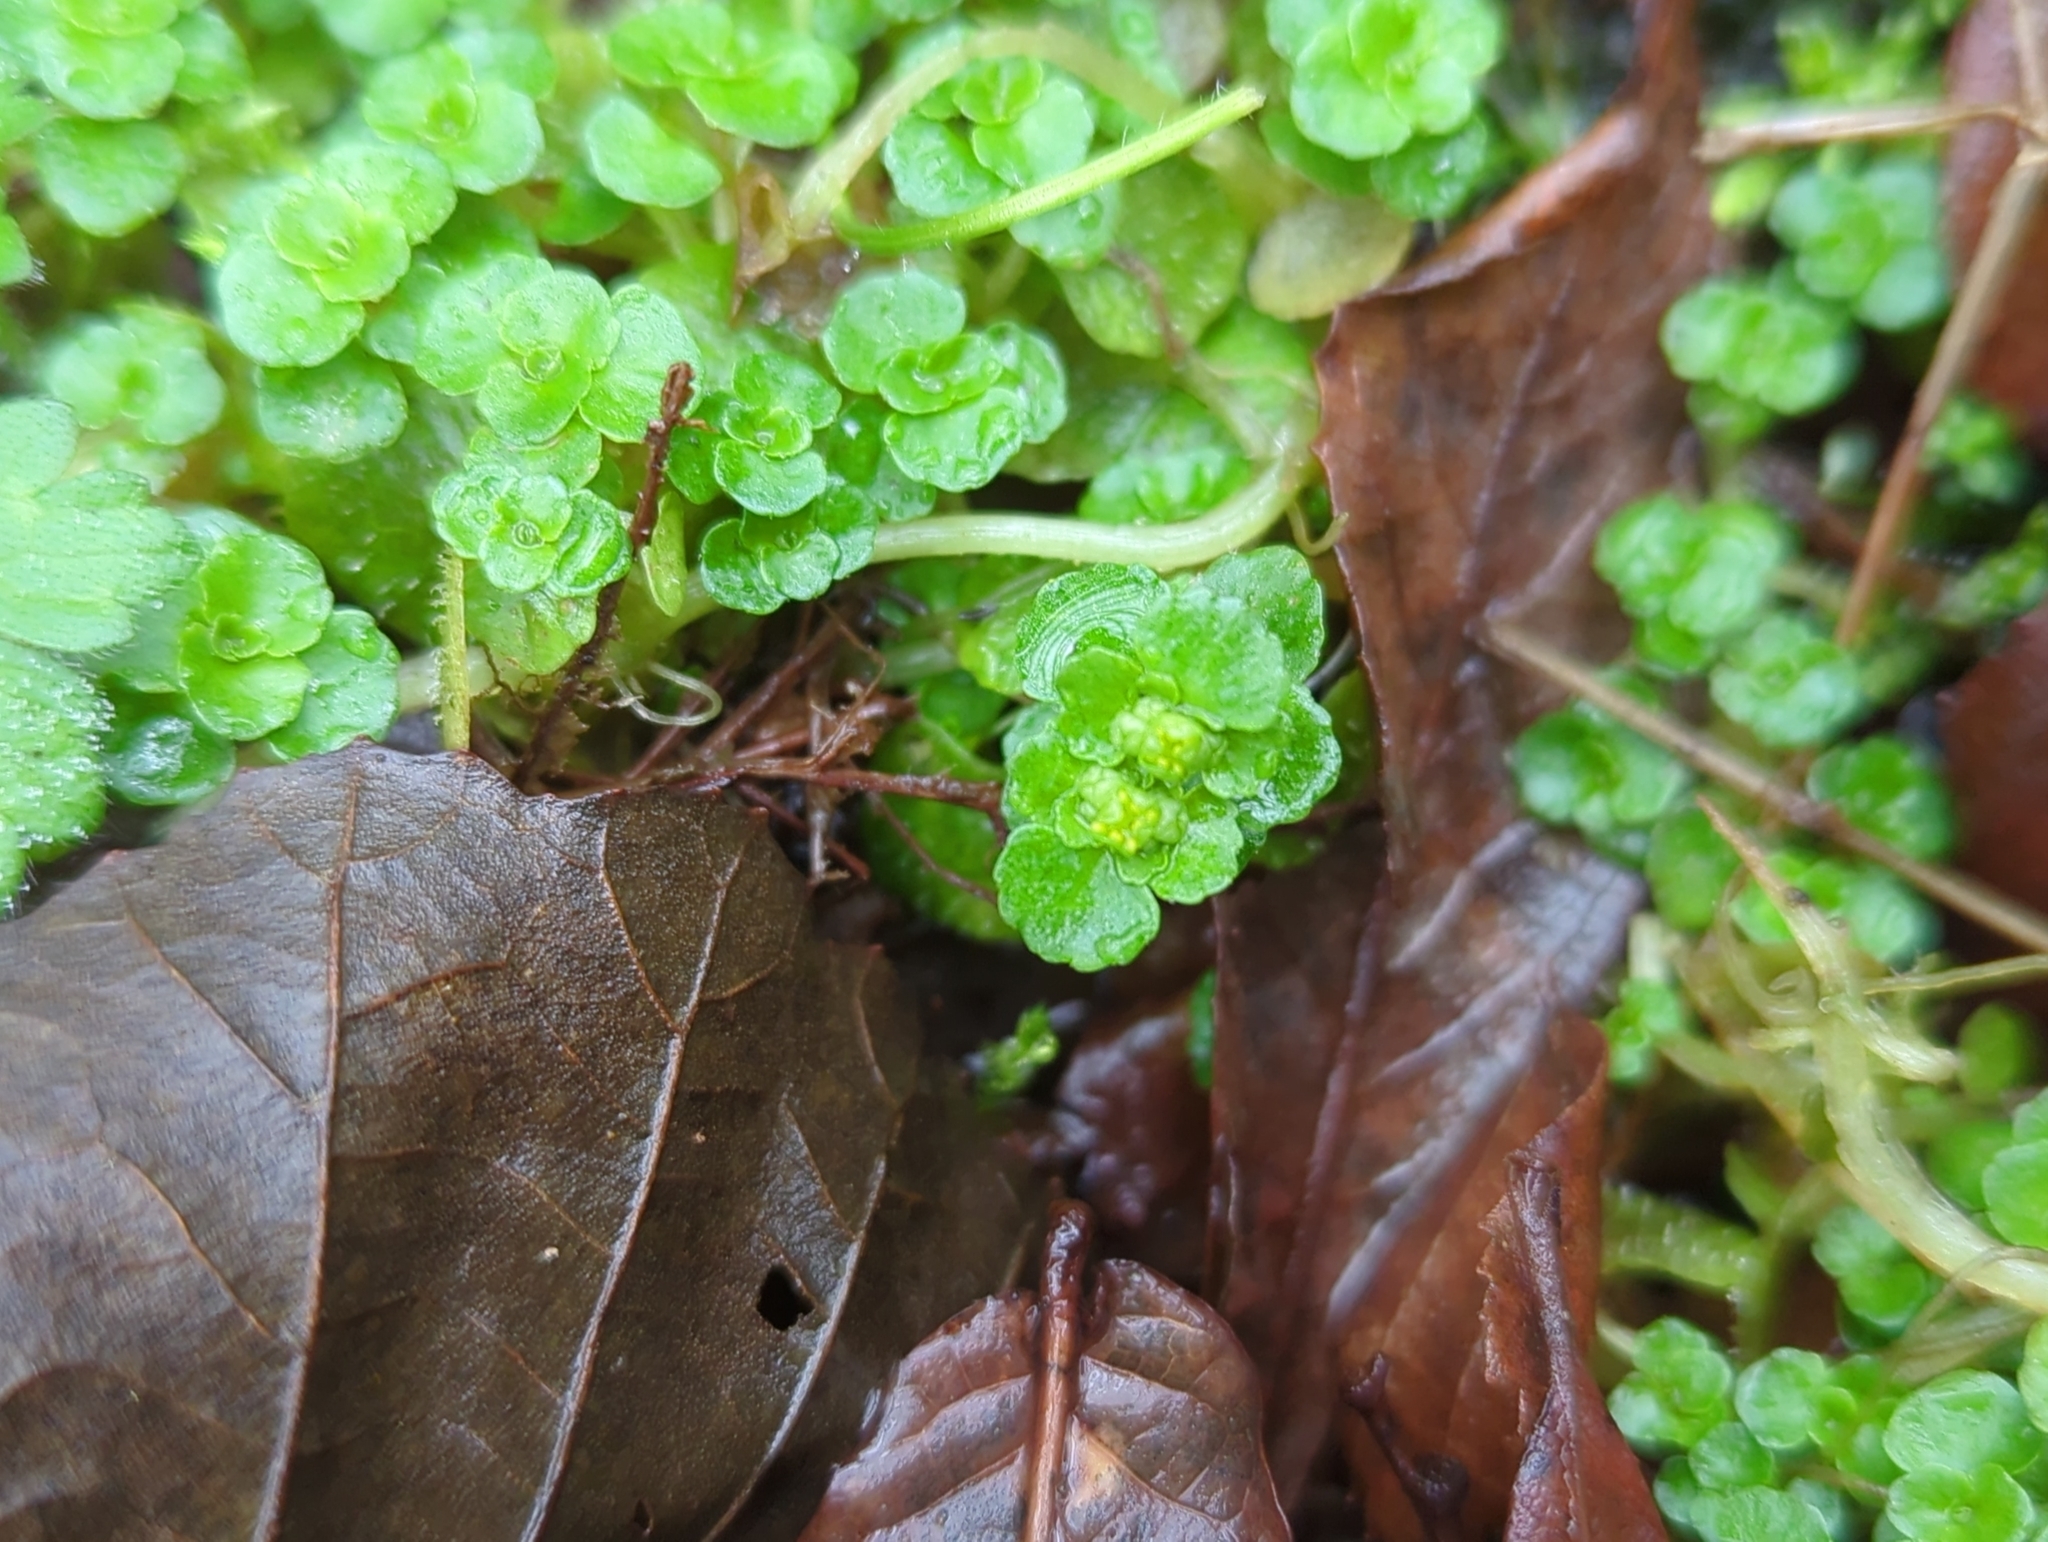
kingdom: Plantae
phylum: Tracheophyta
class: Magnoliopsida
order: Saxifragales
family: Saxifragaceae
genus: Chrysosplenium
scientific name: Chrysosplenium oppositifolium
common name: Opposite-leaved golden-saxifrage
